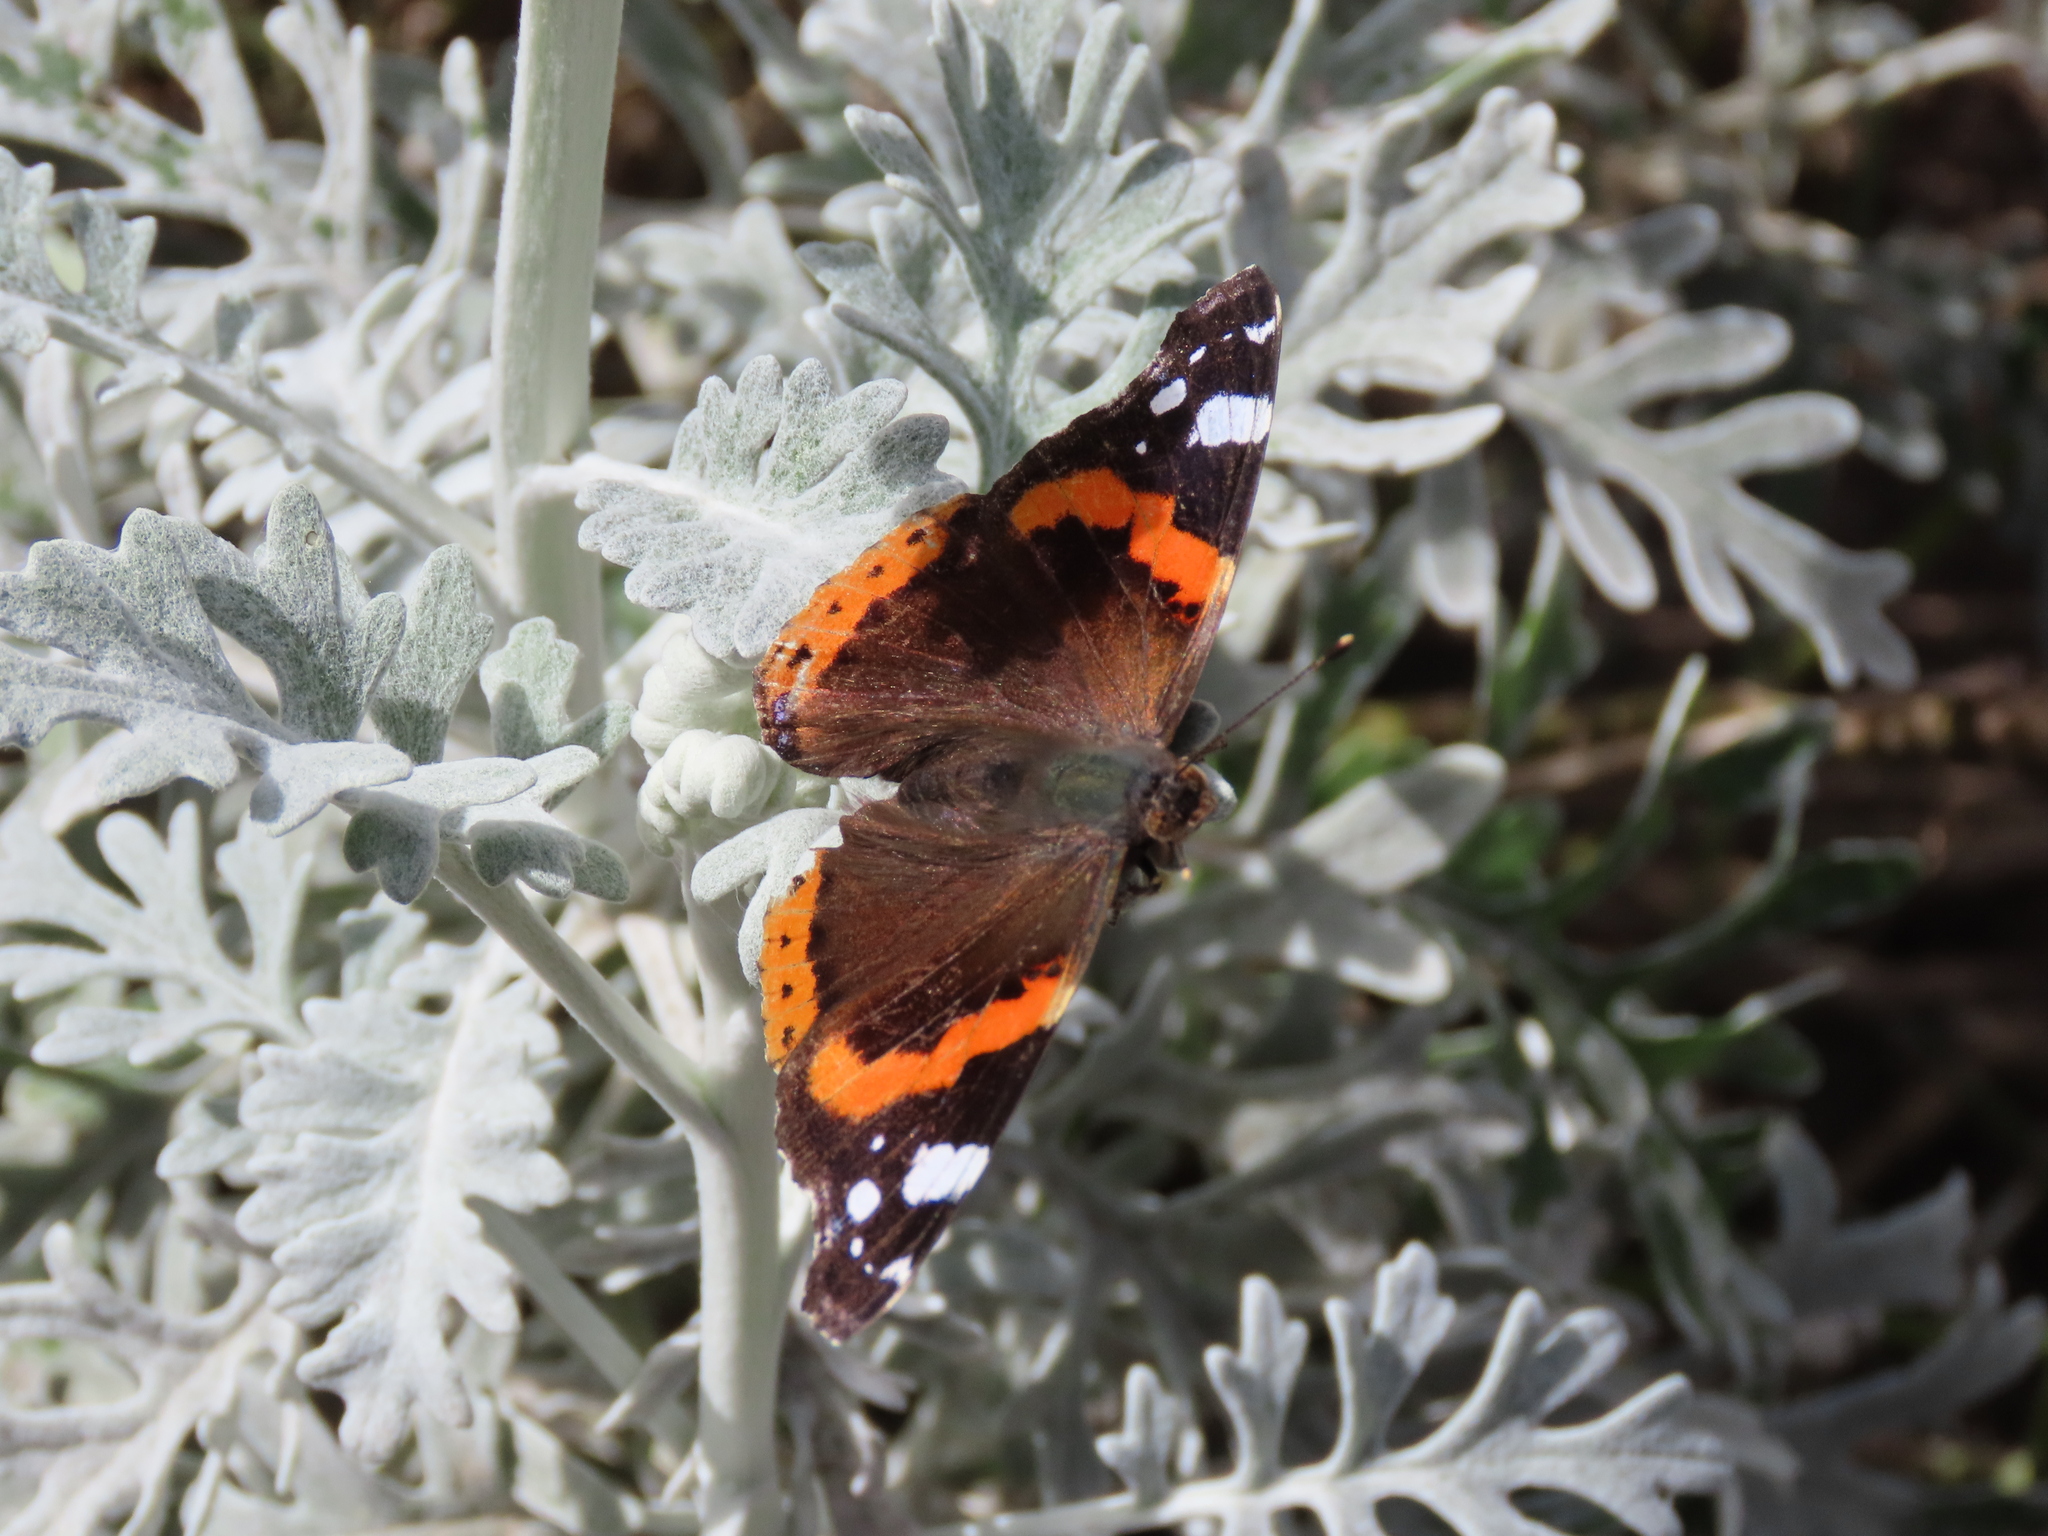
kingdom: Animalia
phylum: Arthropoda
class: Insecta
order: Lepidoptera
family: Nymphalidae
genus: Vanessa
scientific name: Vanessa atalanta
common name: Red admiral
